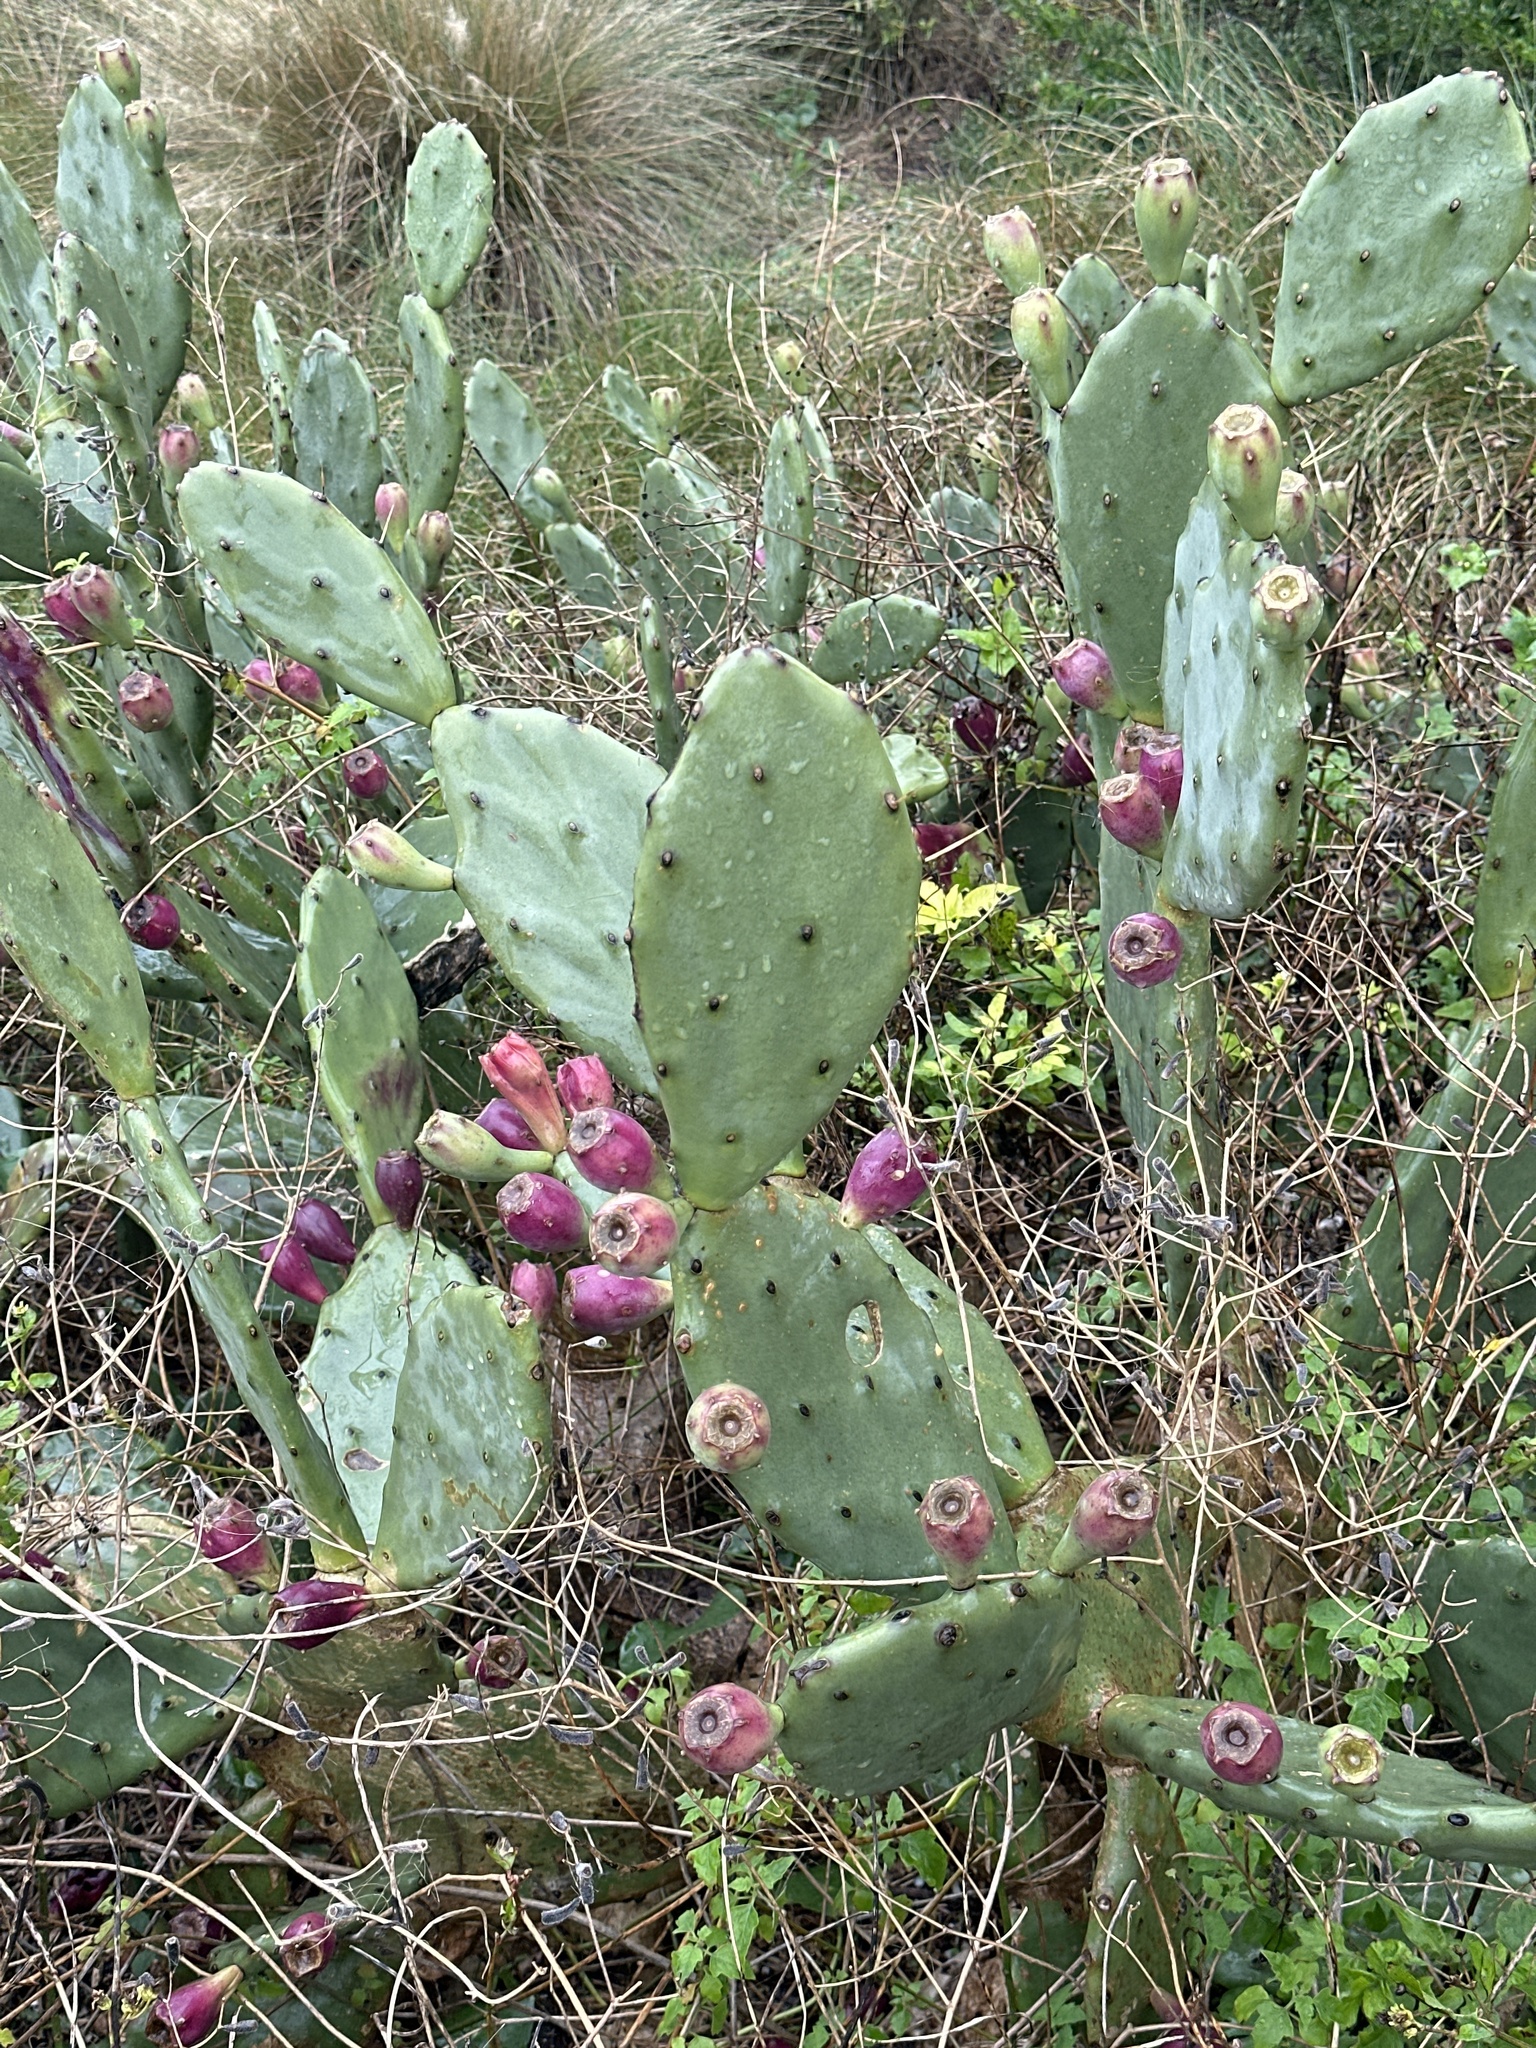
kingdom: Plantae
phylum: Tracheophyta
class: Magnoliopsida
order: Caryophyllales
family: Cactaceae
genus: Opuntia
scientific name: Opuntia stricta
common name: Erect pricklypear
